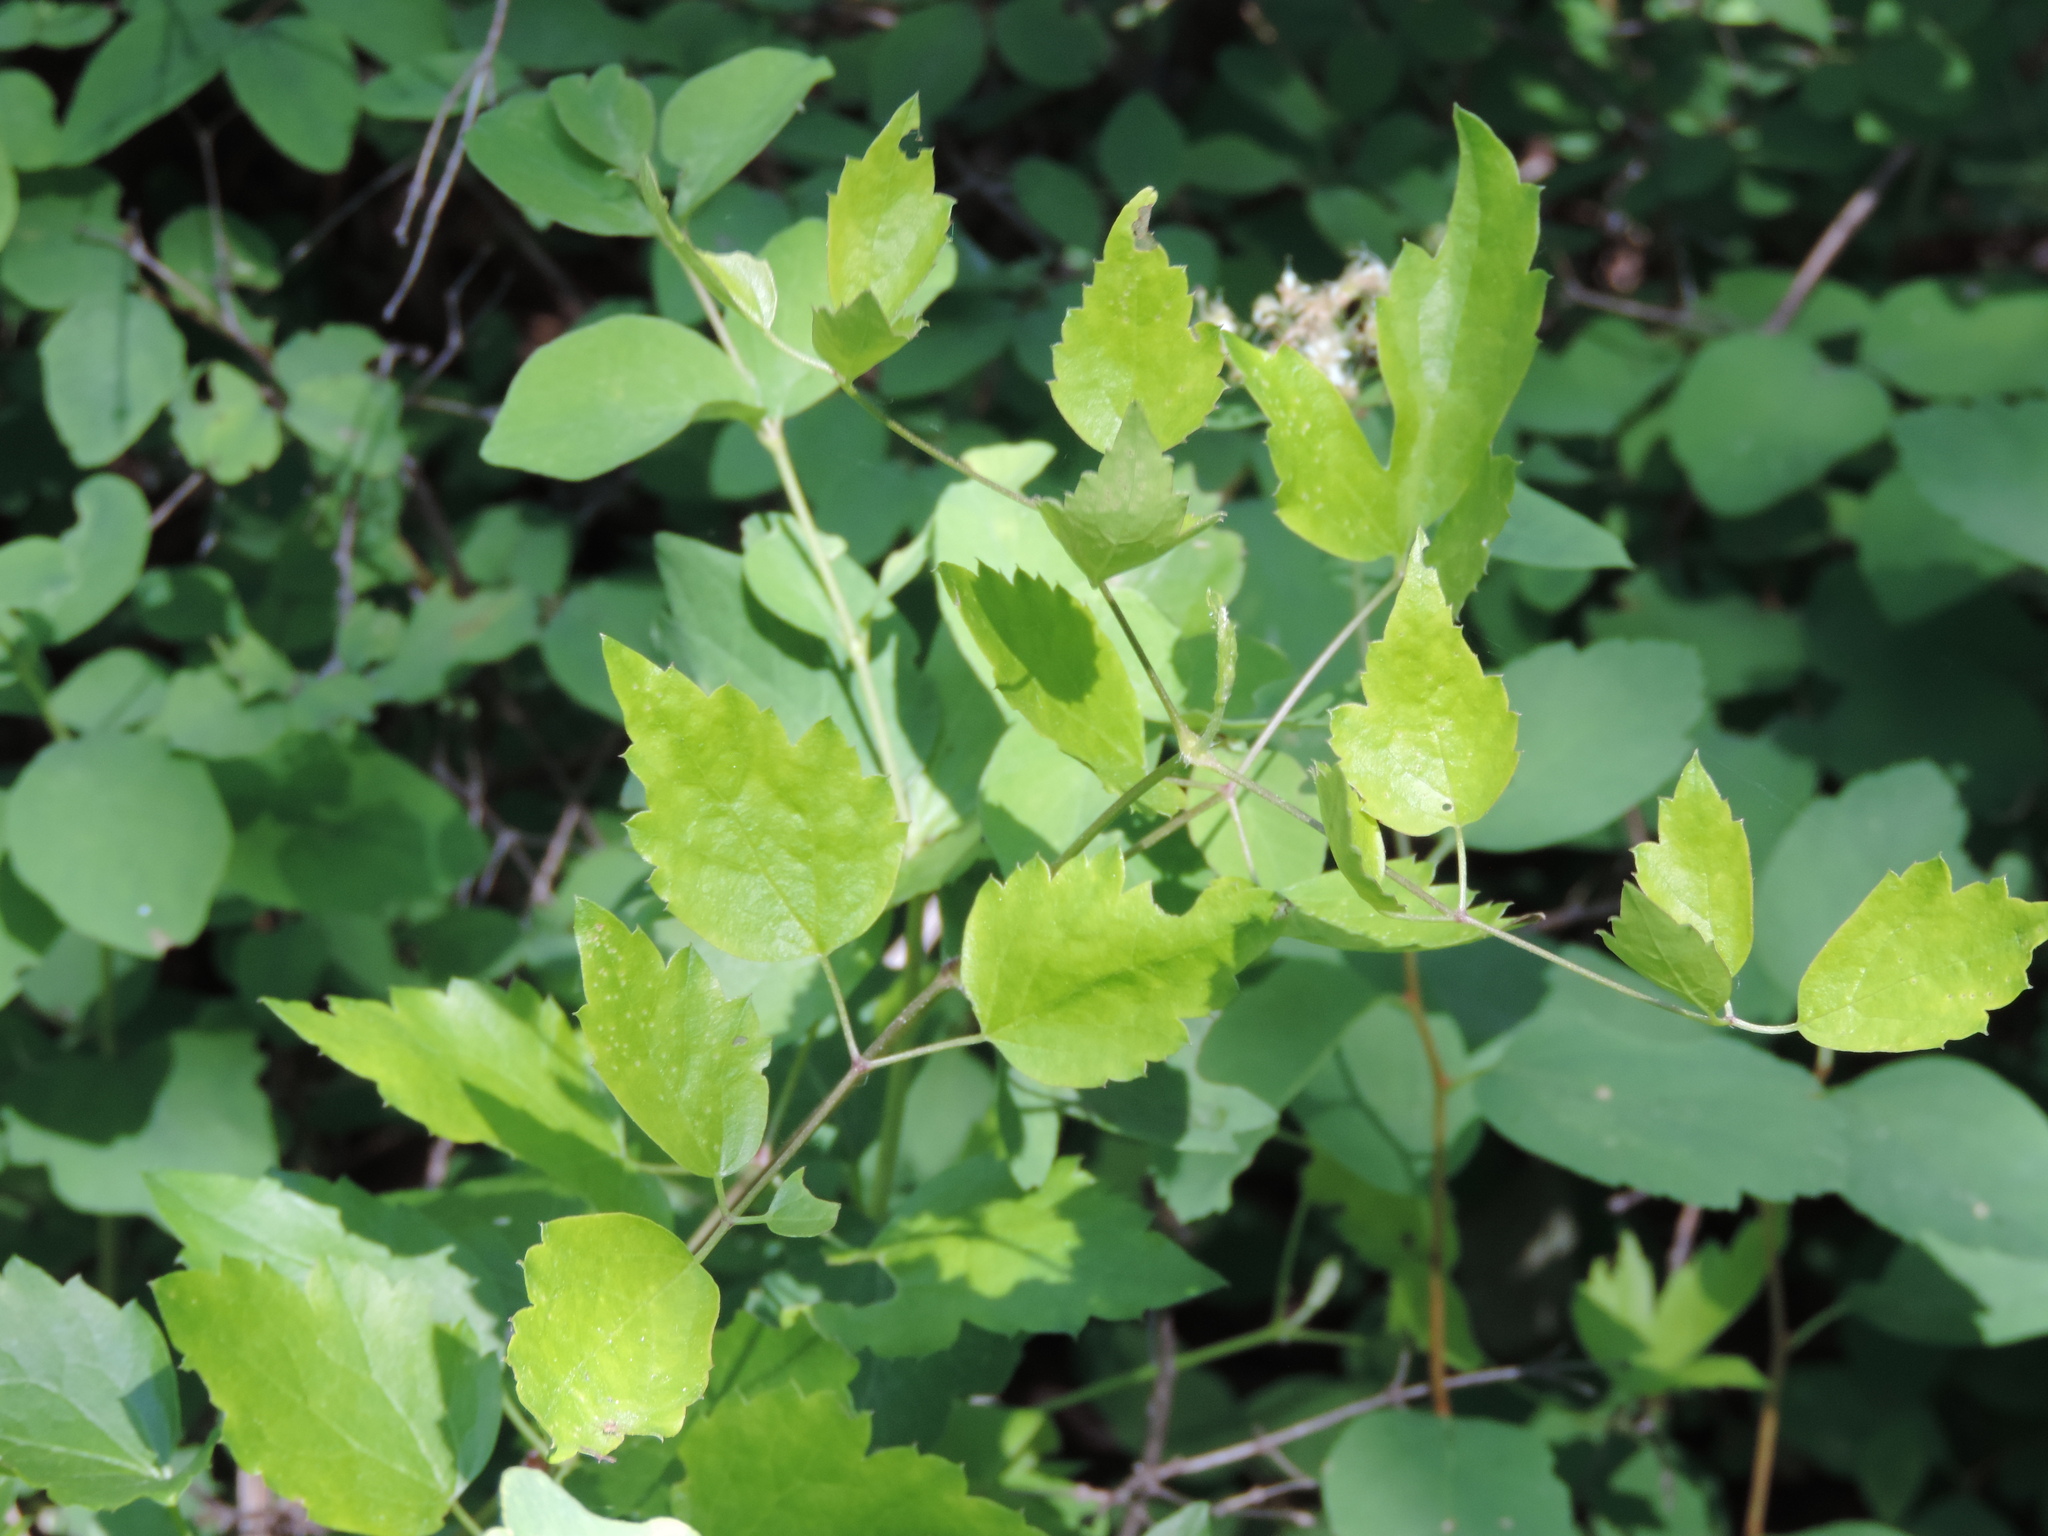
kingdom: Plantae
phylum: Tracheophyta
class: Magnoliopsida
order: Ranunculales
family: Ranunculaceae
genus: Clematis
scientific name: Clematis ligusticifolia
